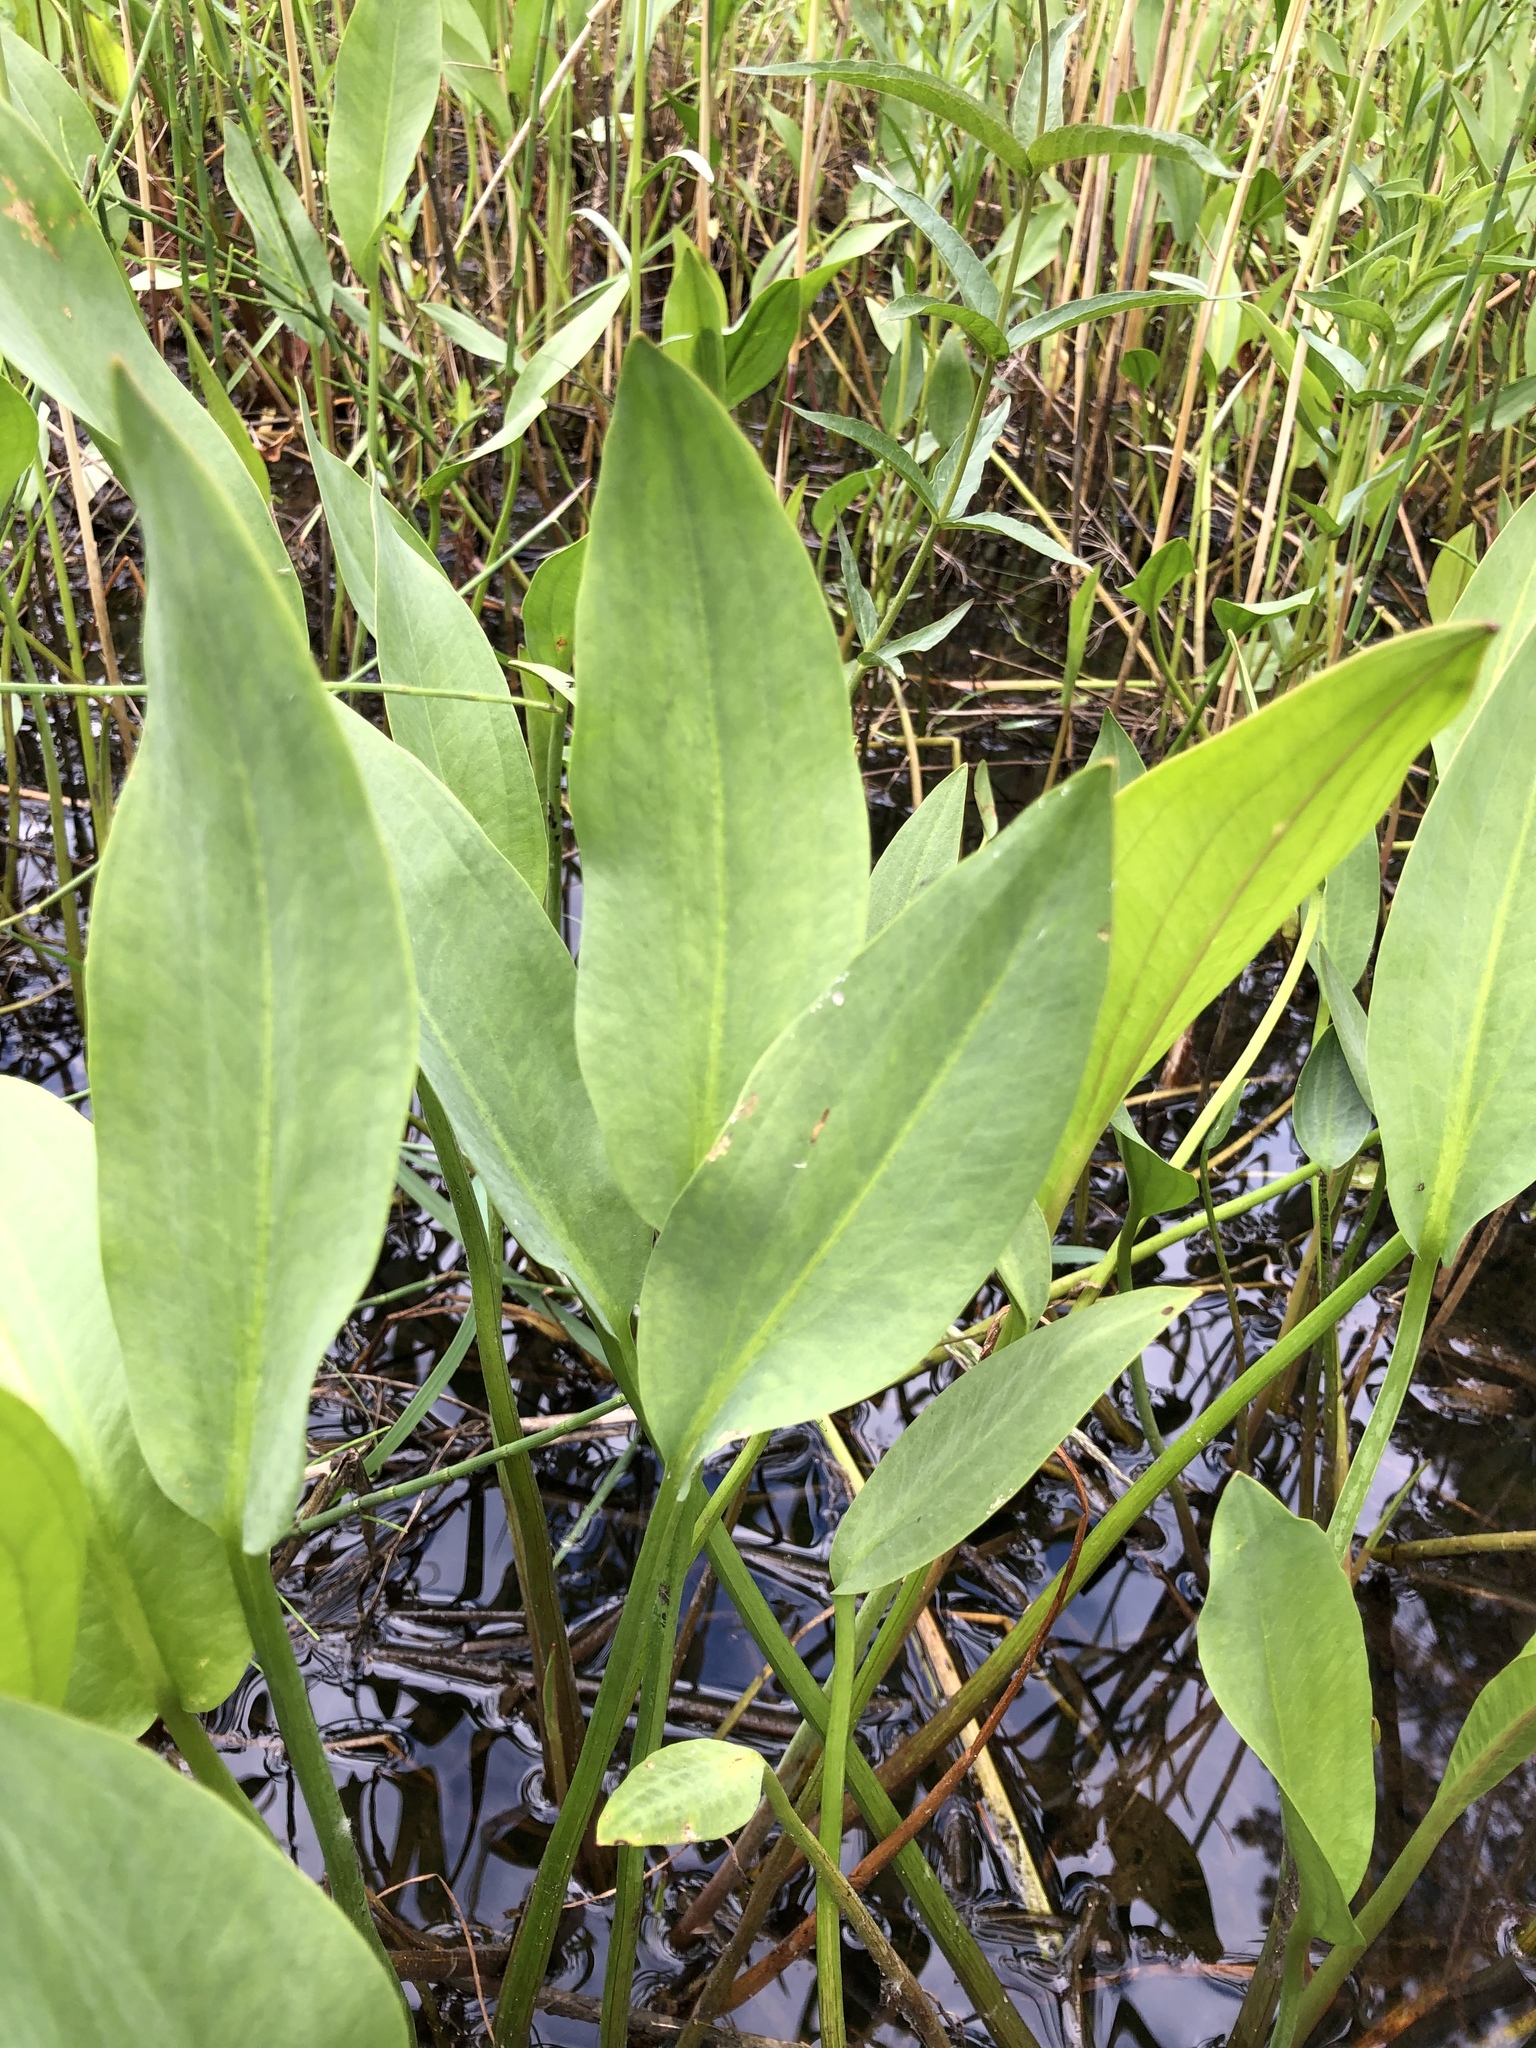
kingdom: Plantae
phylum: Tracheophyta
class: Liliopsida
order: Alismatales
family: Alismataceae
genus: Alisma
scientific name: Alisma plantago-aquatica
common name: Water-plantain
